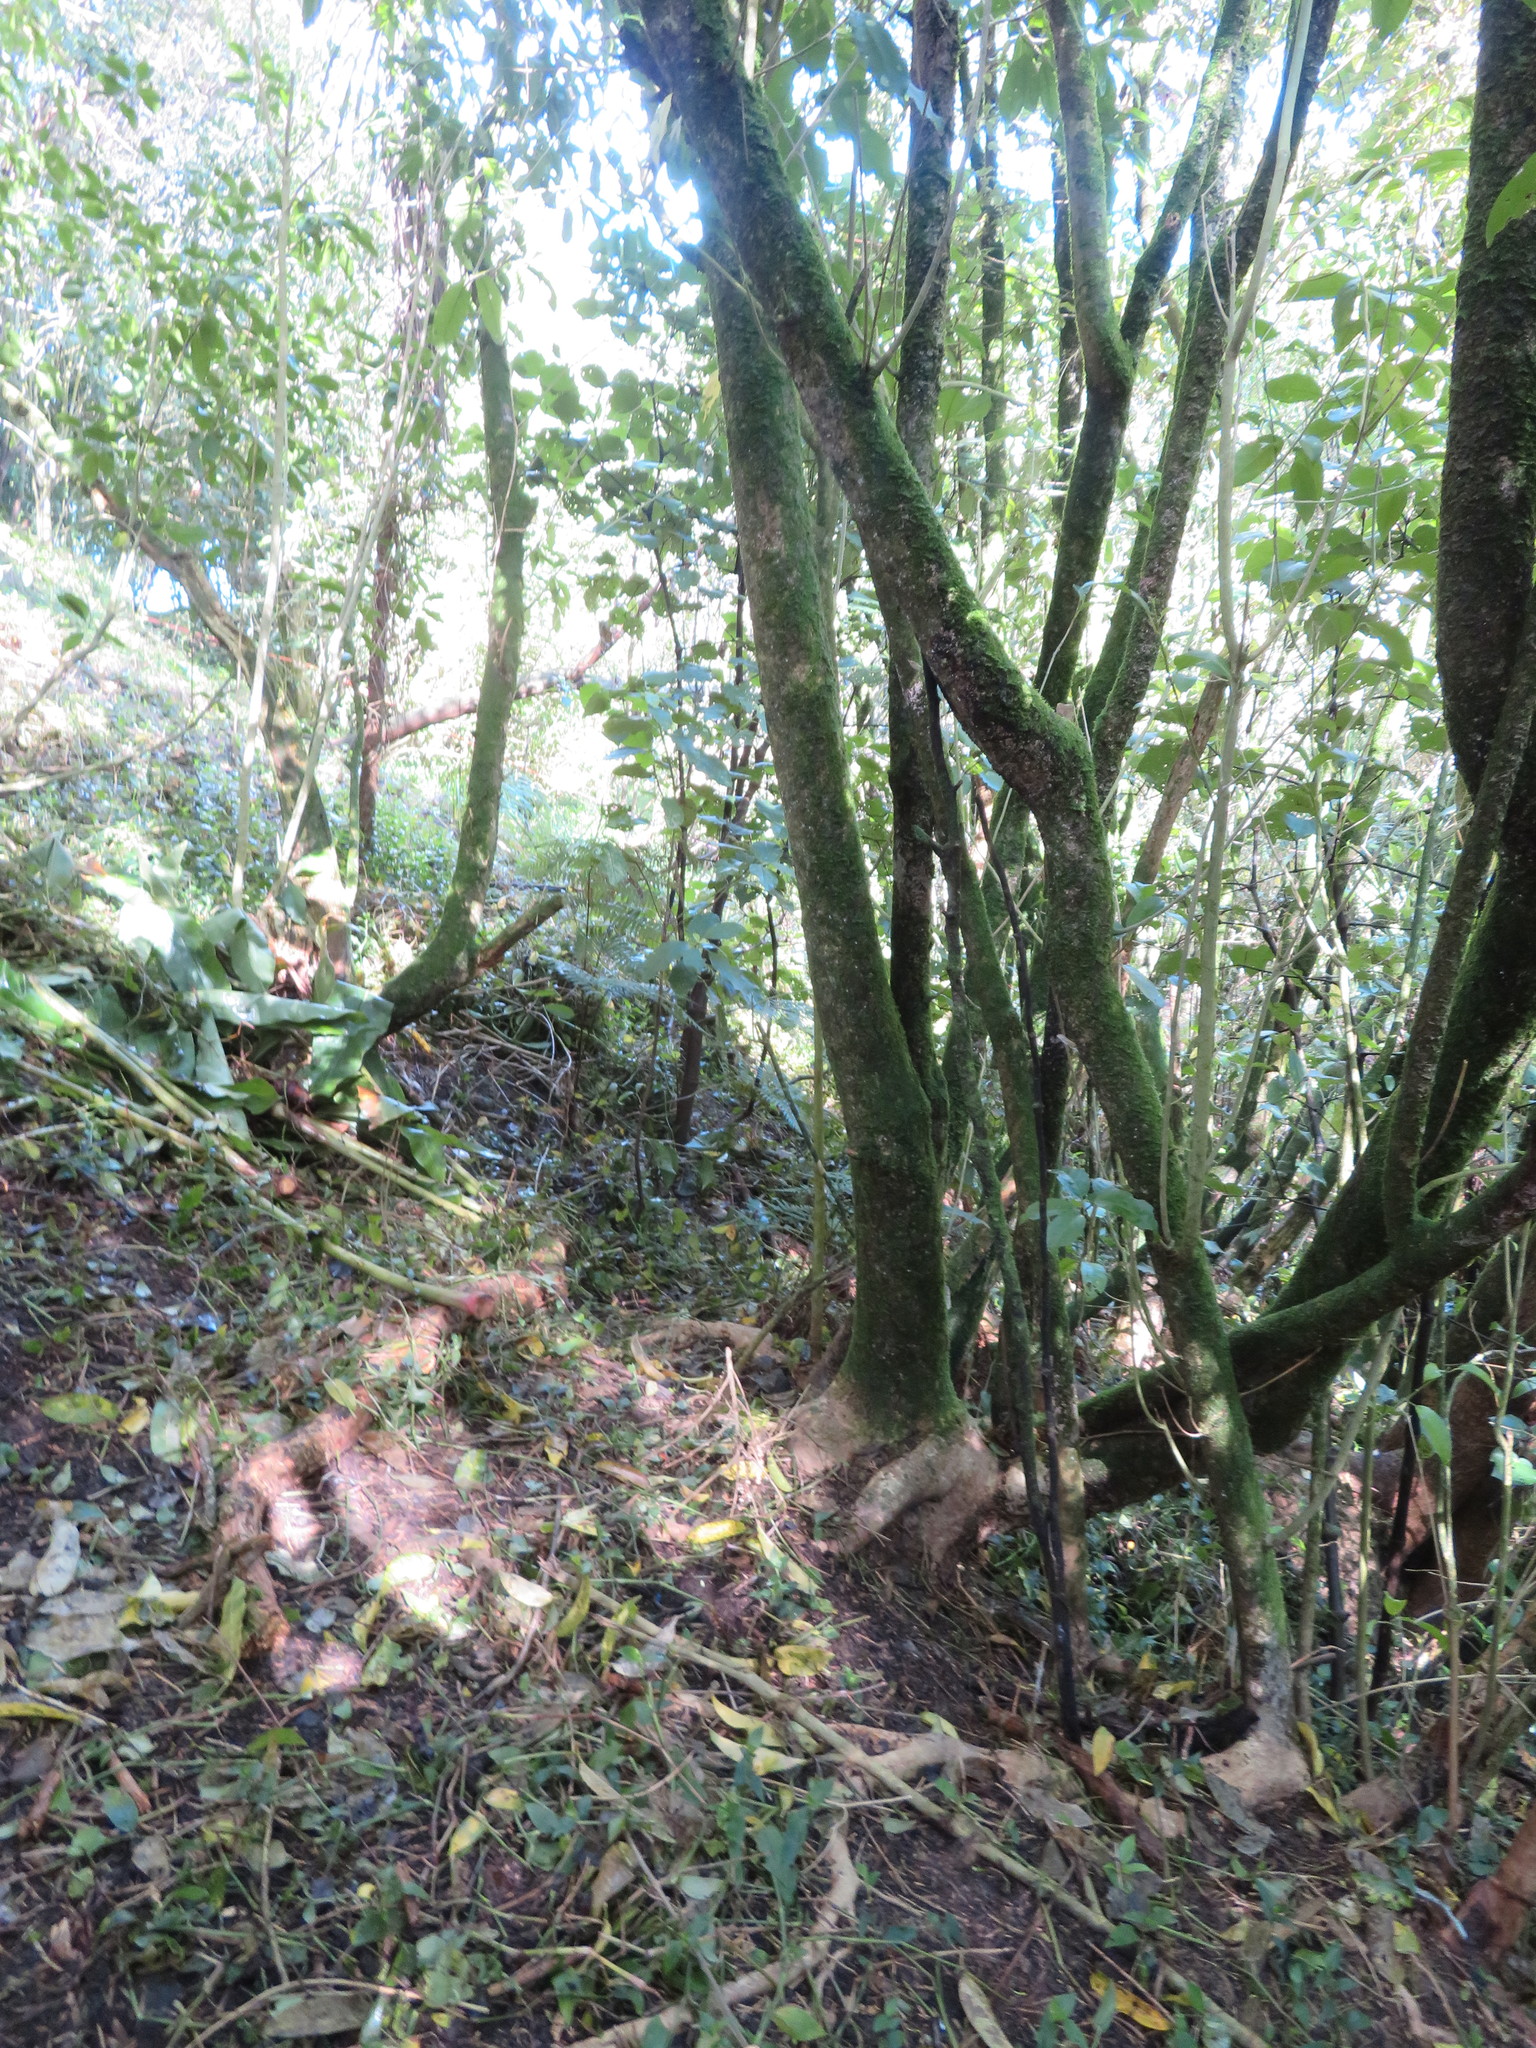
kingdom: Plantae
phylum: Tracheophyta
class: Liliopsida
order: Zingiberales
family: Zingiberaceae
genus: Hedychium
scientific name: Hedychium gardnerianum
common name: Himalayan ginger
